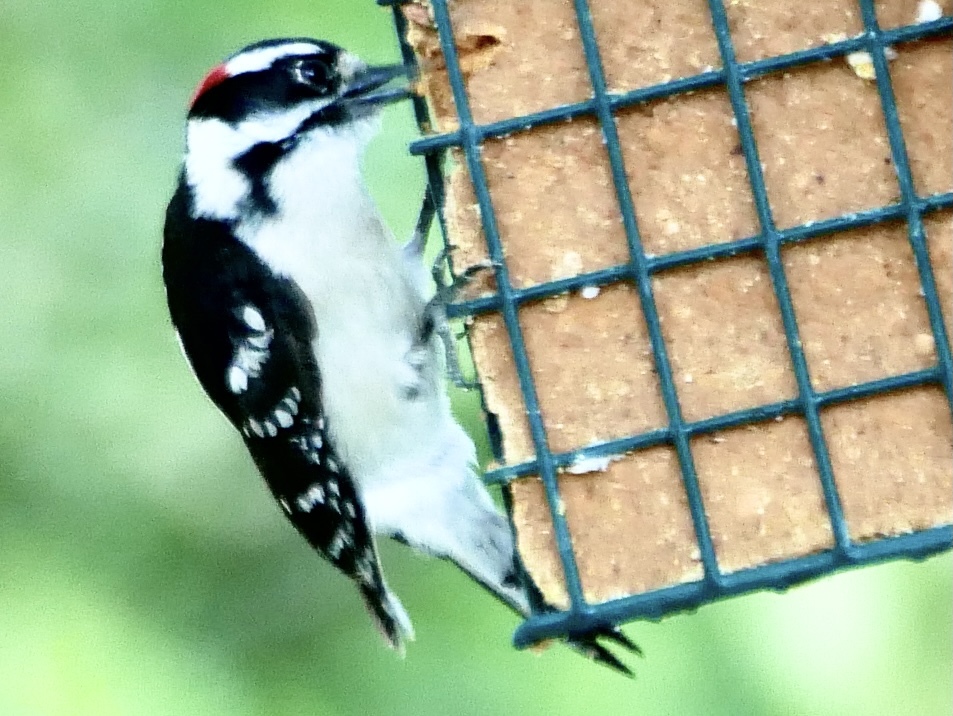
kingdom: Animalia
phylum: Chordata
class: Aves
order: Piciformes
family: Picidae
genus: Dryobates
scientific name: Dryobates pubescens
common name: Downy woodpecker
